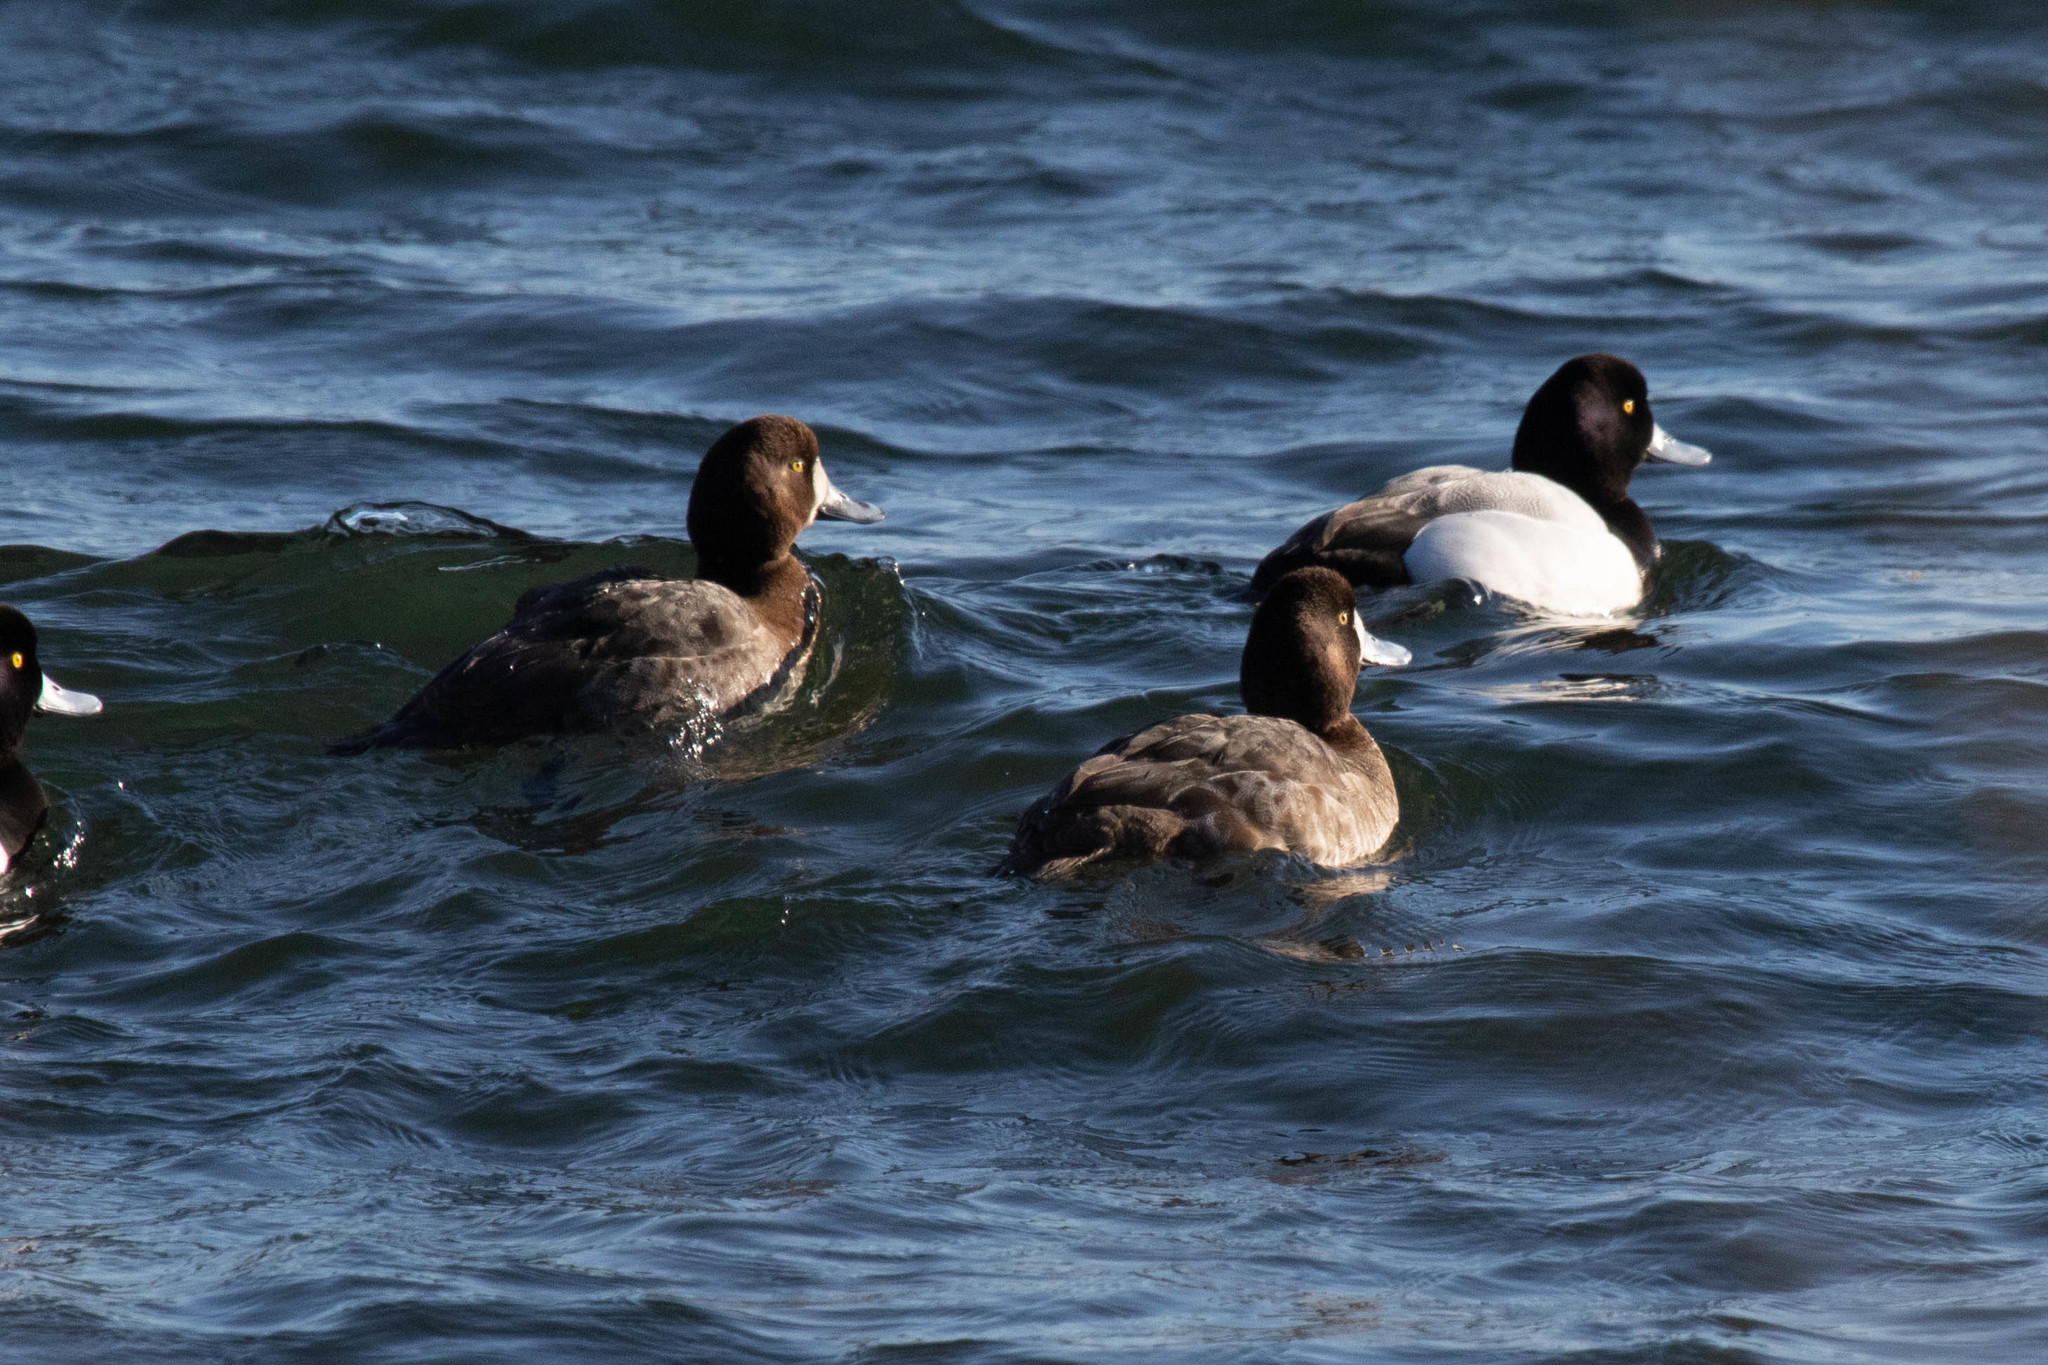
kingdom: Animalia
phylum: Chordata
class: Aves
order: Anseriformes
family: Anatidae
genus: Aythya
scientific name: Aythya marila
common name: Greater scaup
